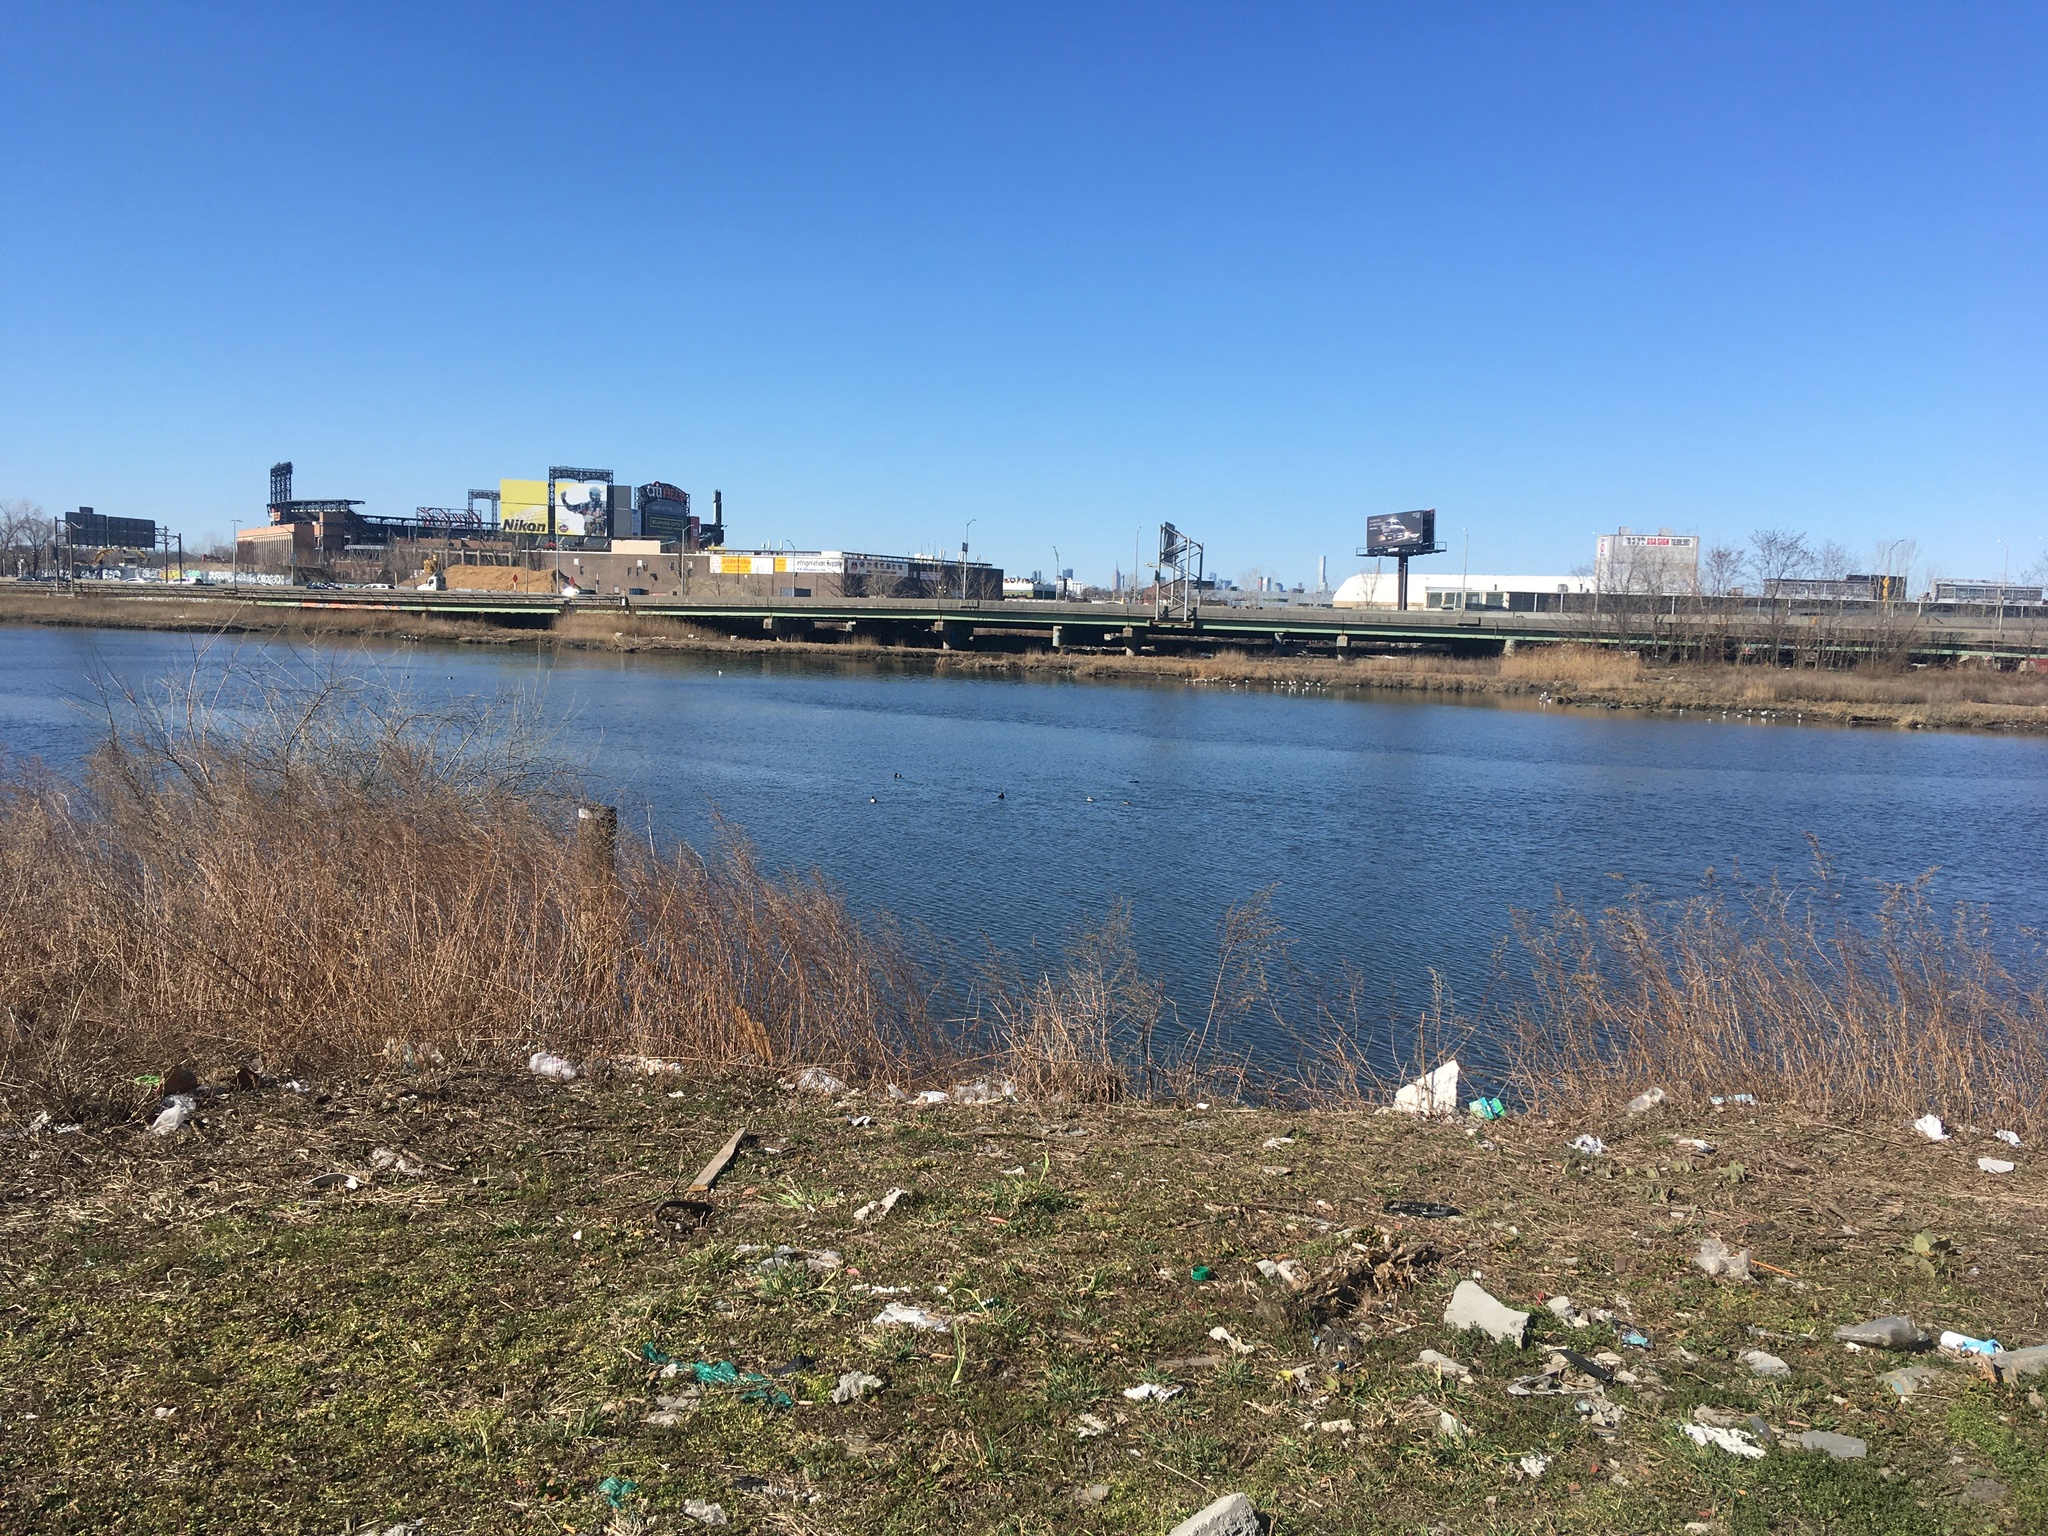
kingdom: Animalia
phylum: Chordata
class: Aves
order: Anseriformes
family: Anatidae
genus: Bucephala
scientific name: Bucephala albeola
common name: Bufflehead
